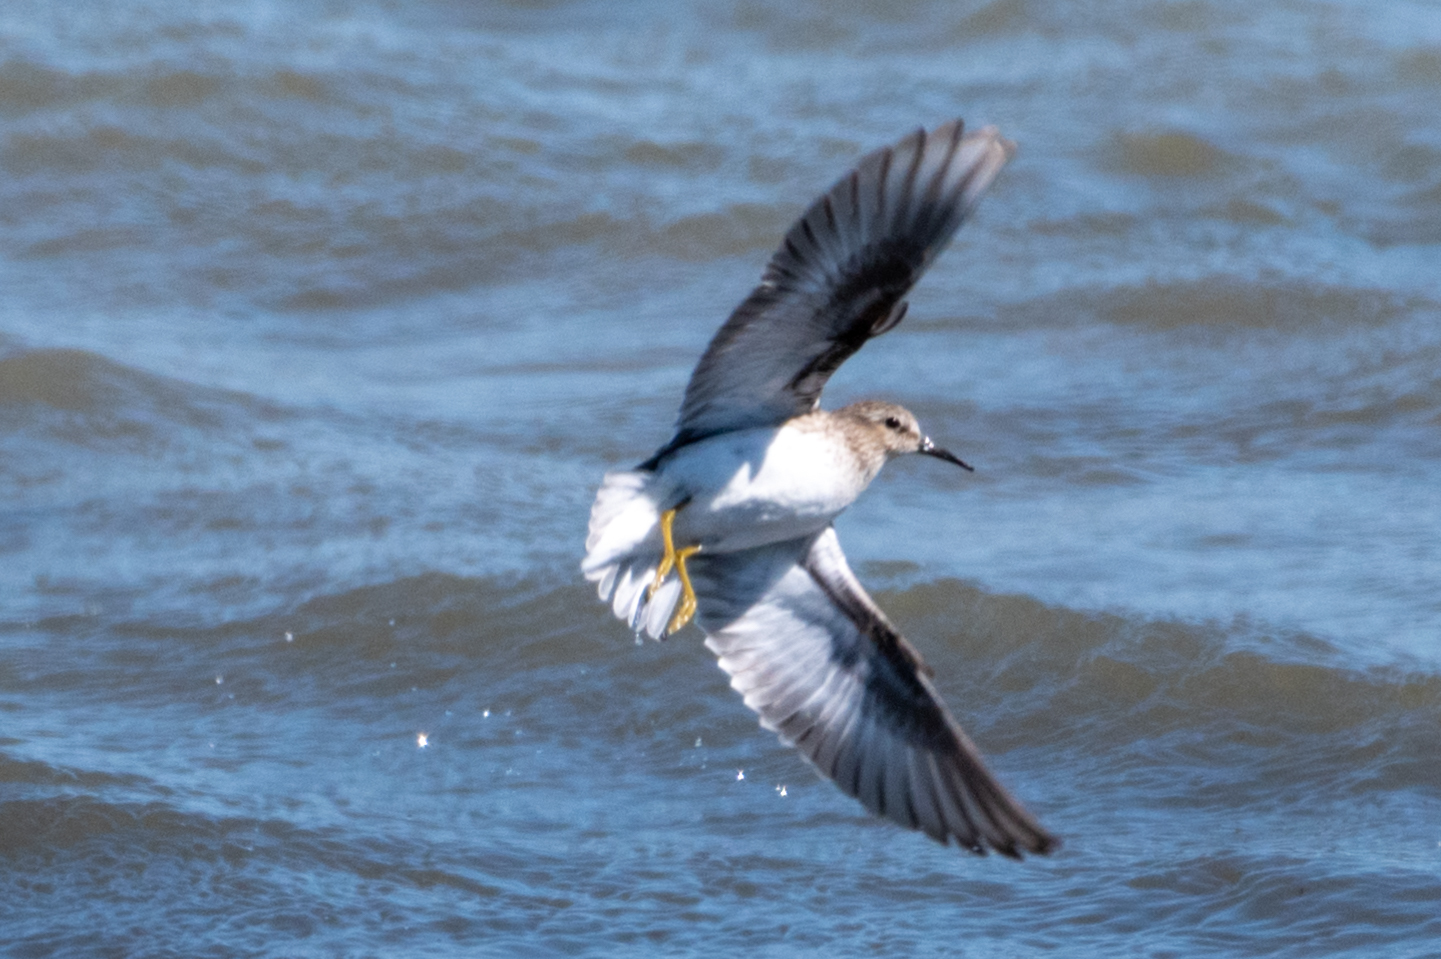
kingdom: Animalia
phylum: Chordata
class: Aves
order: Charadriiformes
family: Scolopacidae
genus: Calidris
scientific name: Calidris minutilla
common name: Least sandpiper
